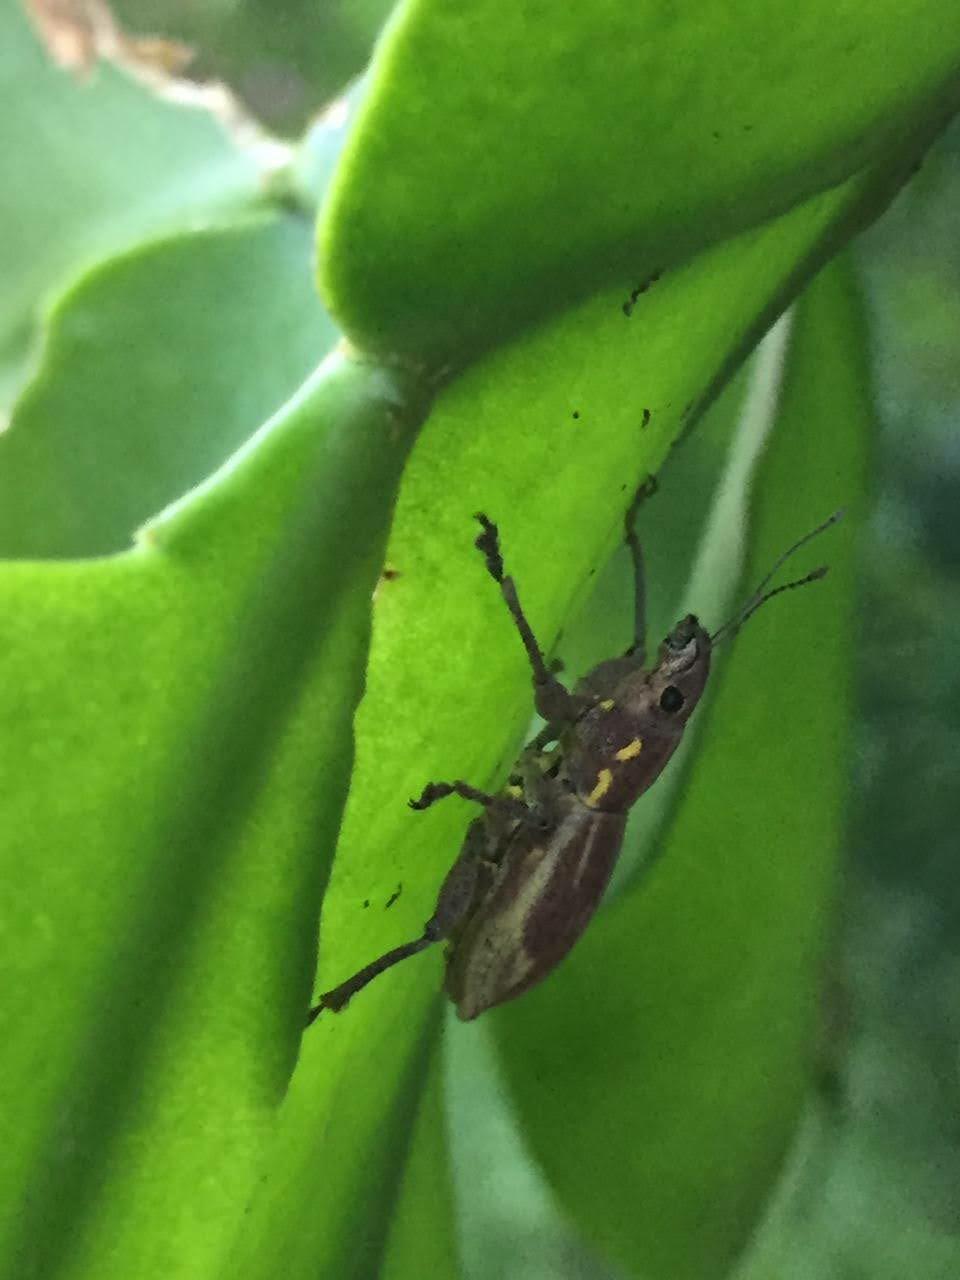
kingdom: Animalia
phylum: Arthropoda
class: Insecta
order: Coleoptera
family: Curculionidae
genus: Naupactus
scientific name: Naupactus xanthographus
